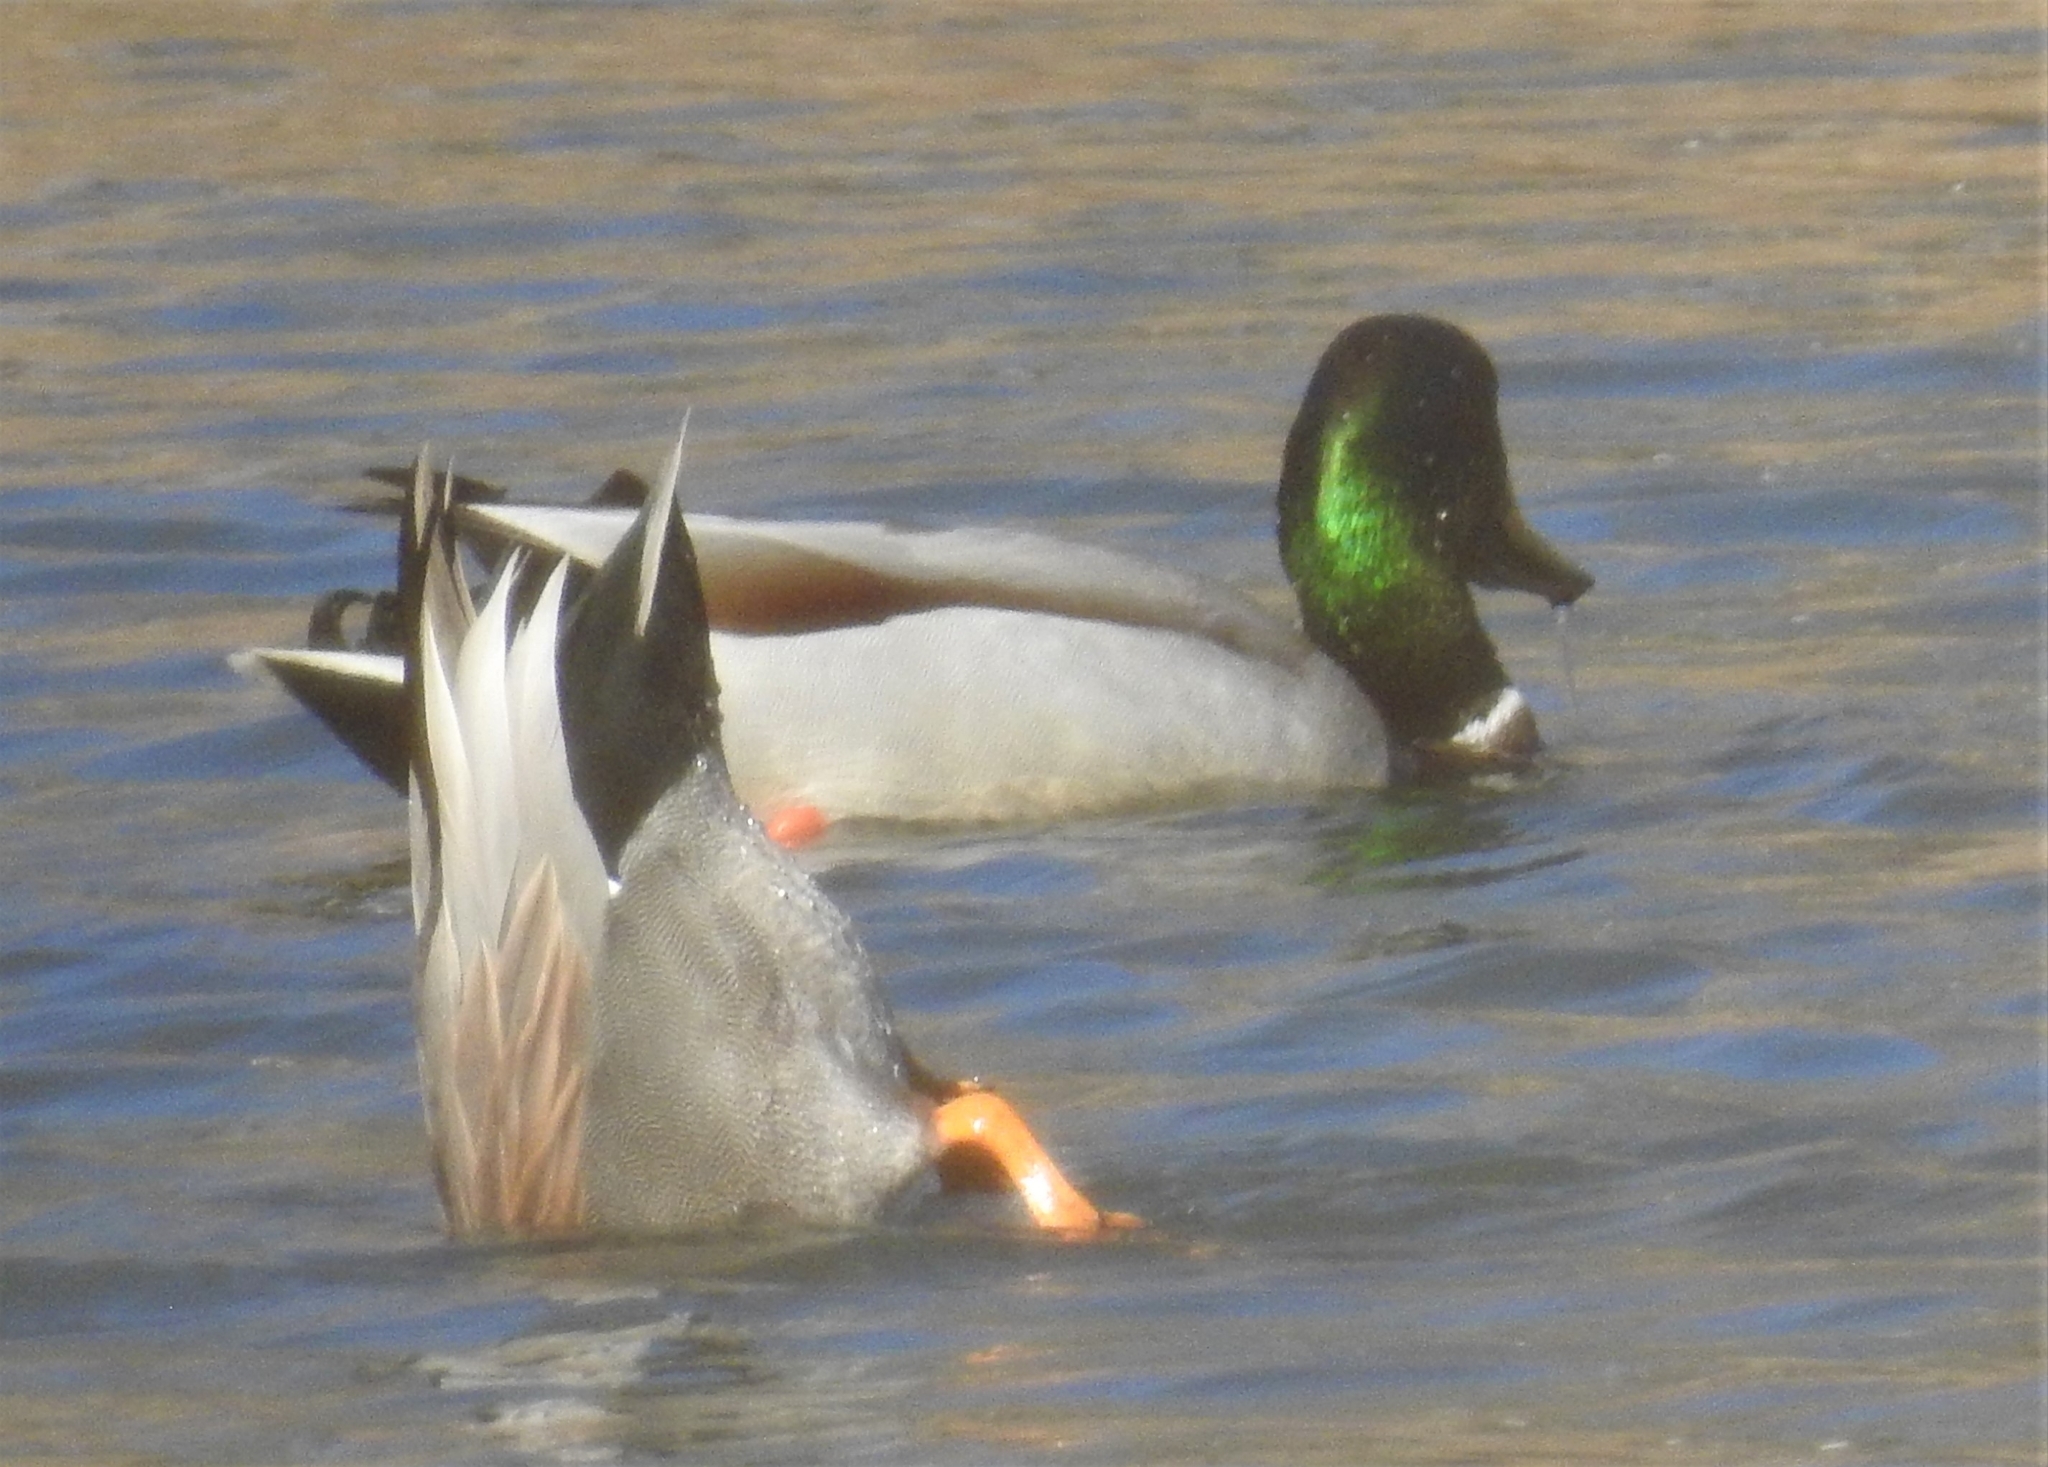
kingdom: Animalia
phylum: Chordata
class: Aves
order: Anseriformes
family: Anatidae
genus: Anas
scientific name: Anas platyrhynchos
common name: Mallard
